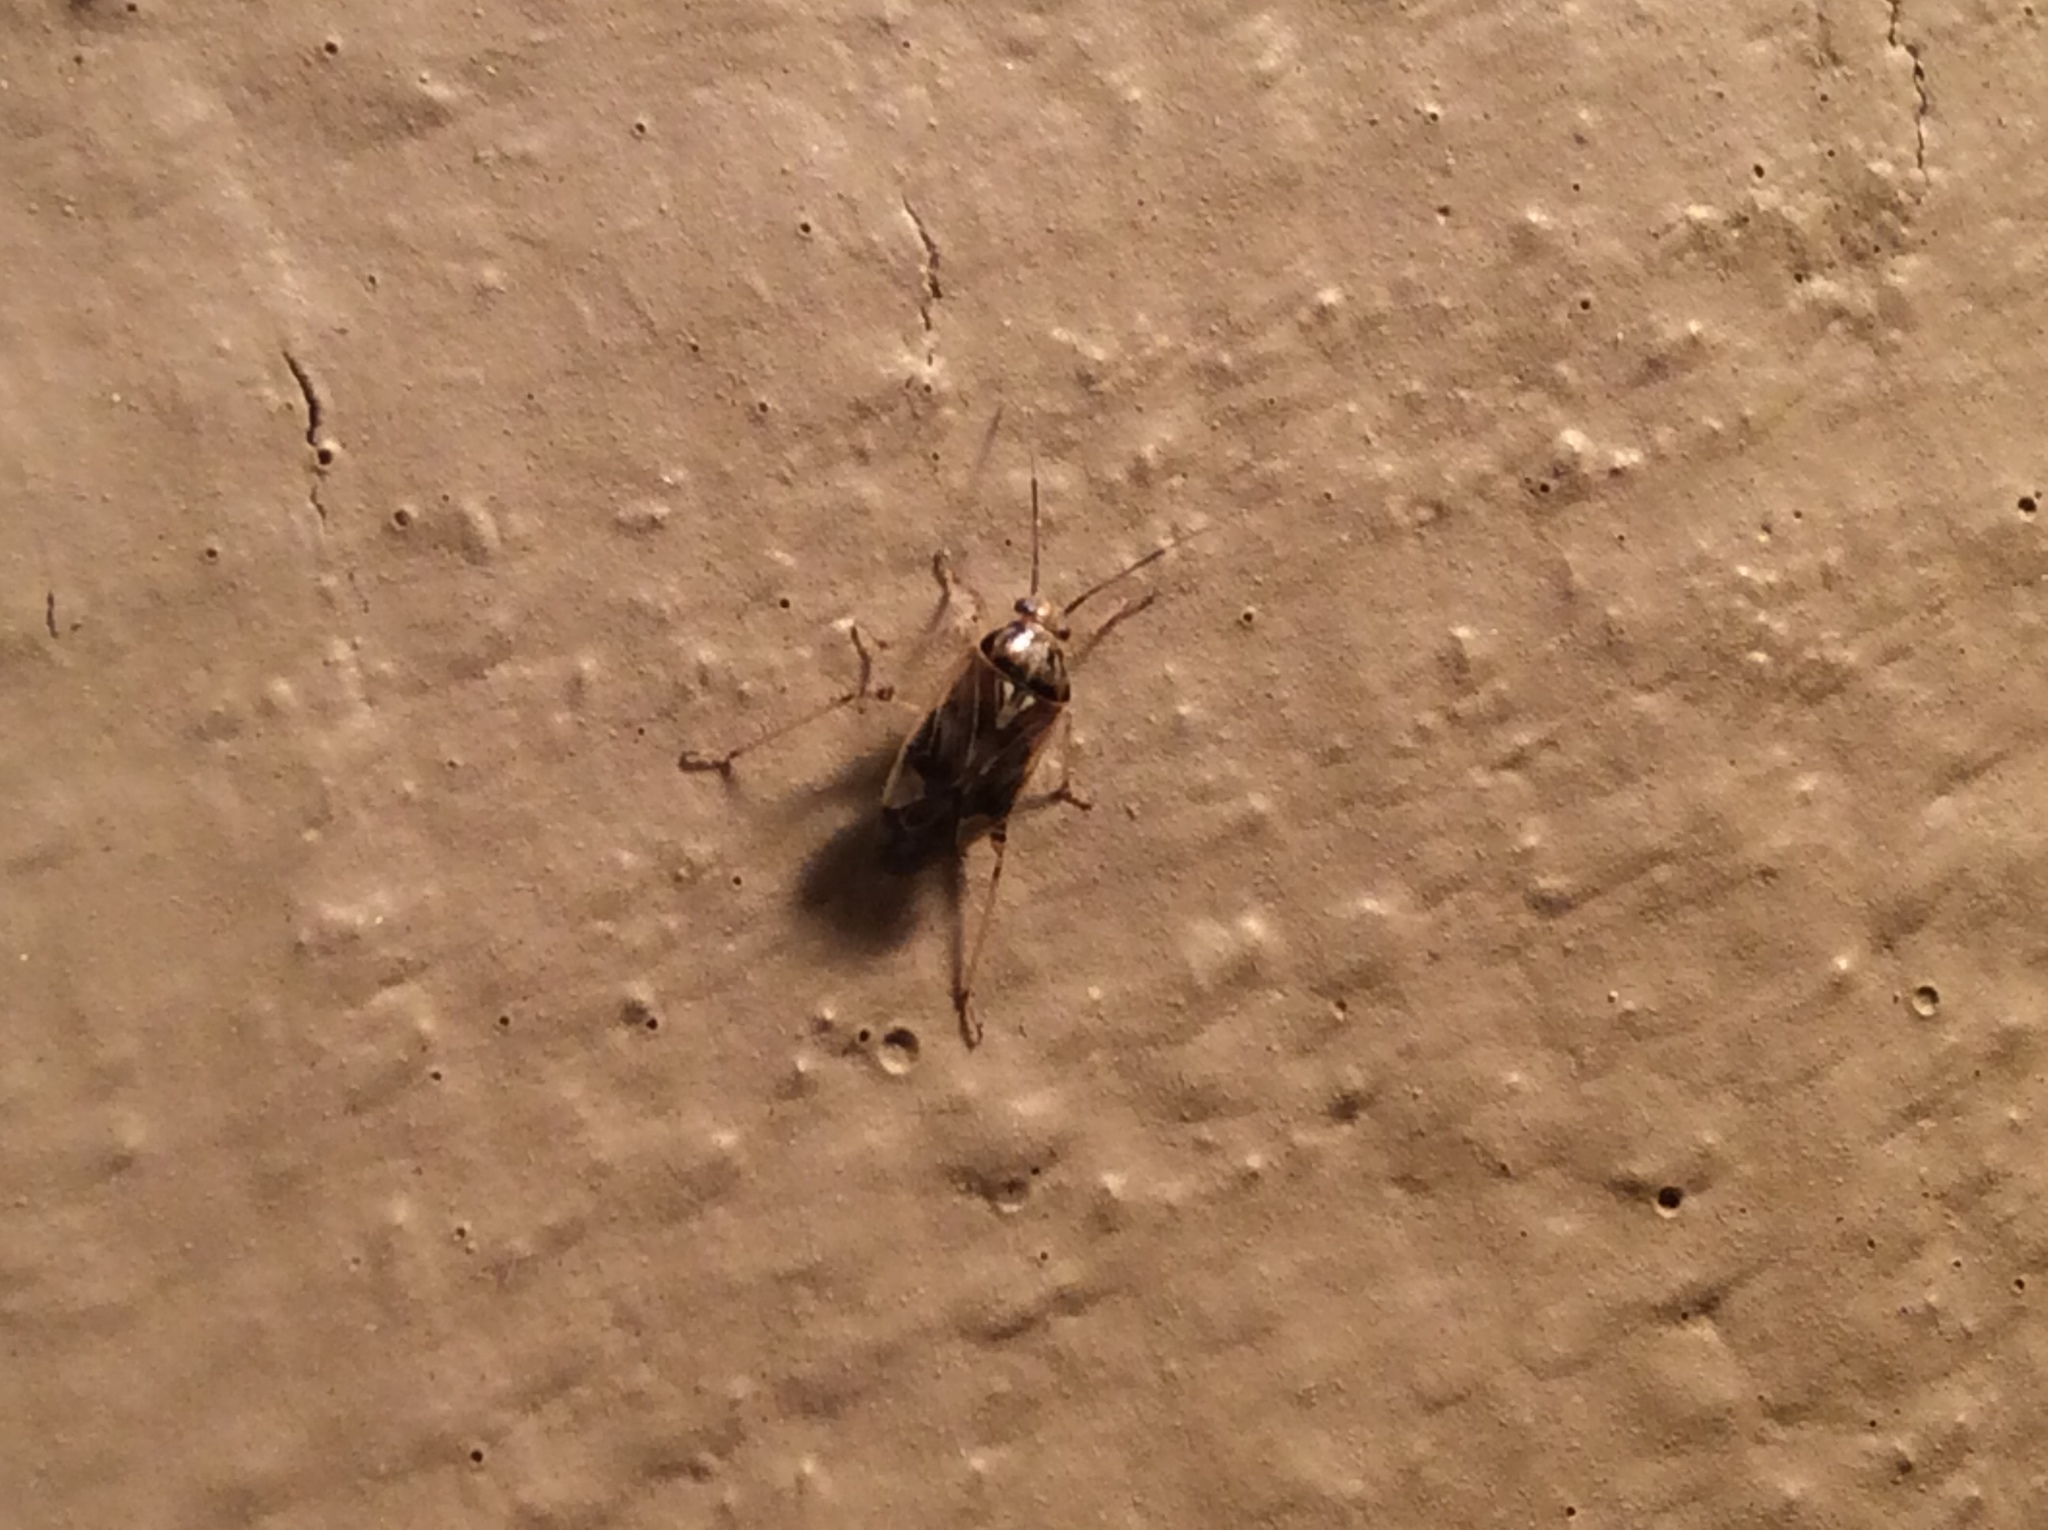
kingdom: Animalia
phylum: Arthropoda
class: Insecta
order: Hemiptera
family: Miridae
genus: Lygus
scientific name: Lygus lineolaris
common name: North american tarnished plant bug
